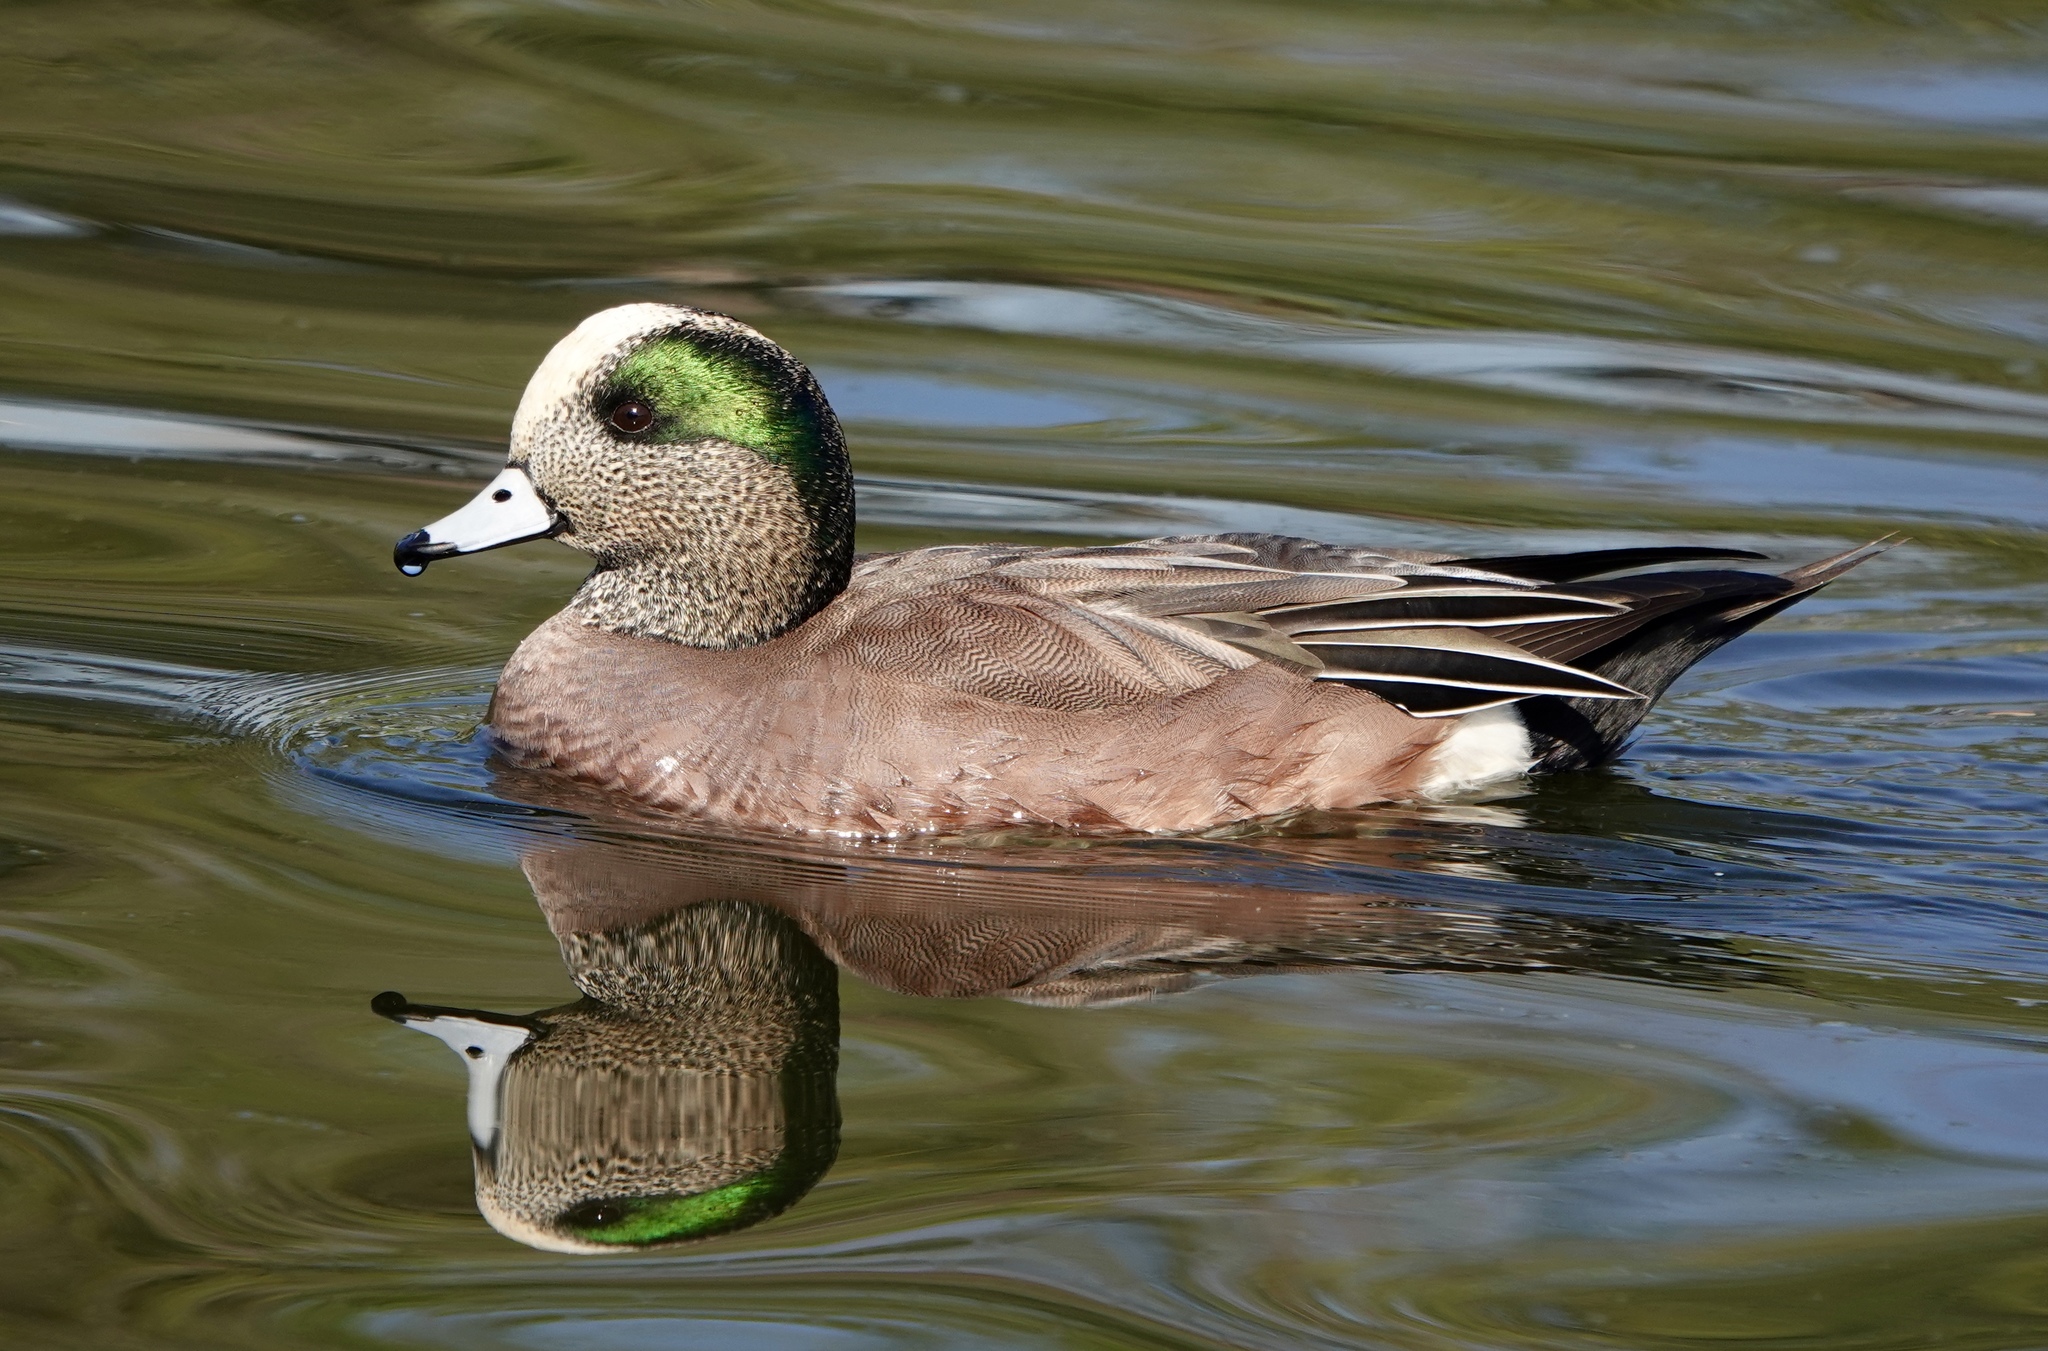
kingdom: Animalia
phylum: Chordata
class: Aves
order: Anseriformes
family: Anatidae
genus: Mareca
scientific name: Mareca americana
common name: American wigeon
